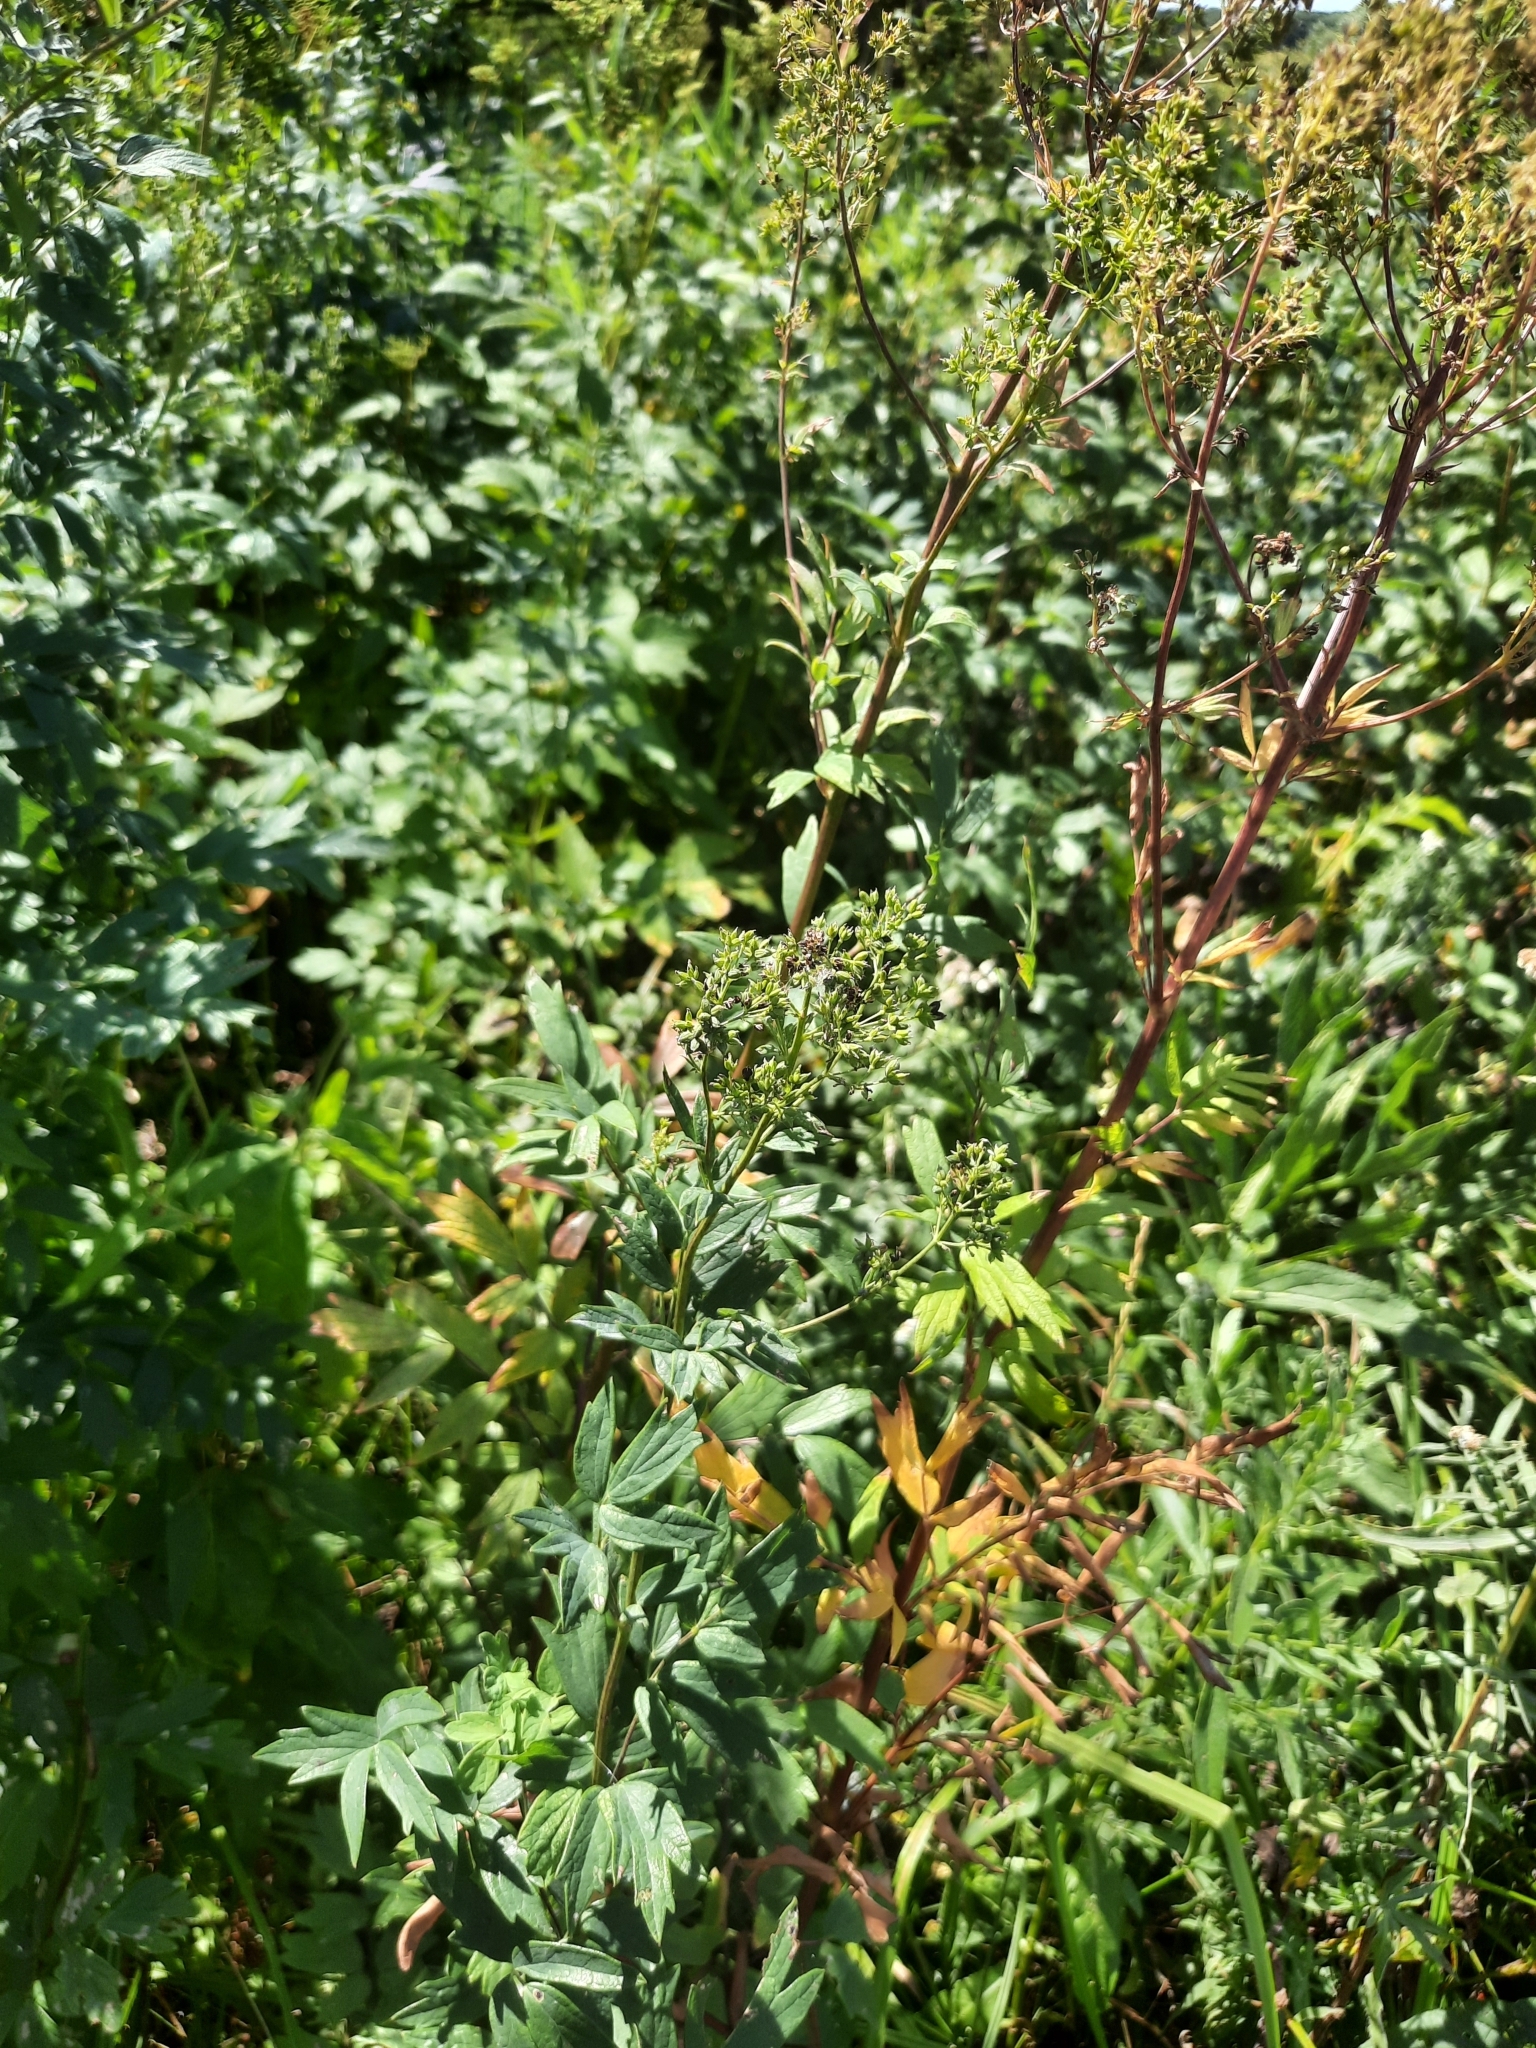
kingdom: Plantae
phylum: Tracheophyta
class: Magnoliopsida
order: Ranunculales
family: Ranunculaceae
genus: Thalictrum
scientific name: Thalictrum simplex
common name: Small meadow-rue
